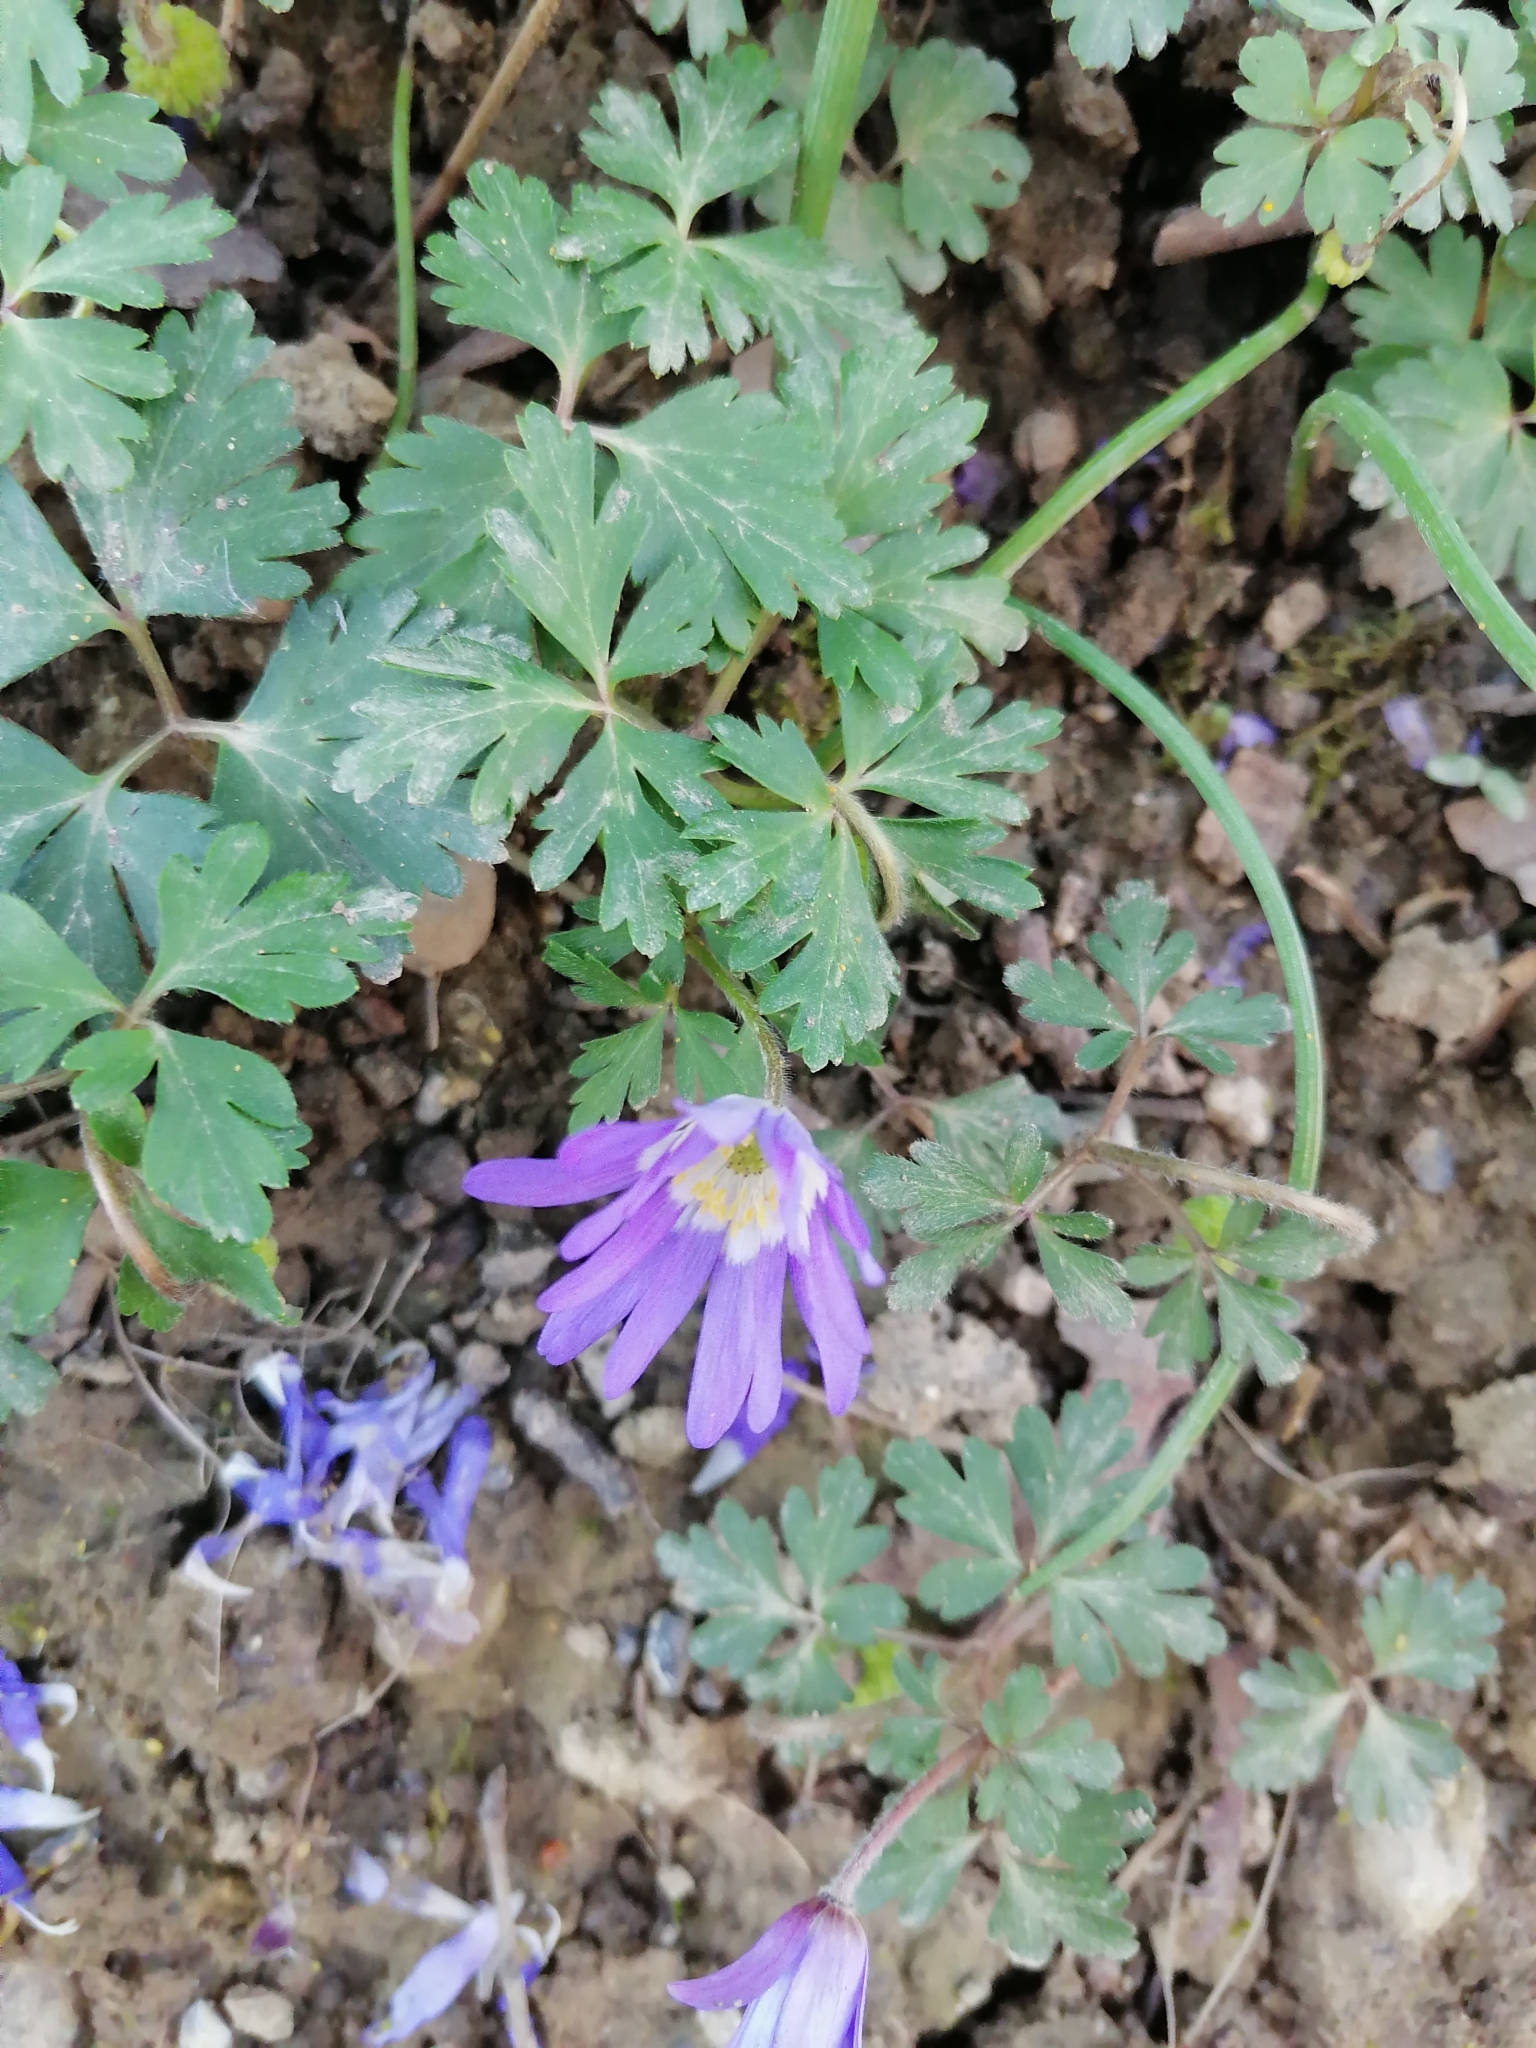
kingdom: Plantae
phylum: Tracheophyta
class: Magnoliopsida
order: Ranunculales
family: Ranunculaceae
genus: Anemone
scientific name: Anemone blanda
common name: Balkan anemone
